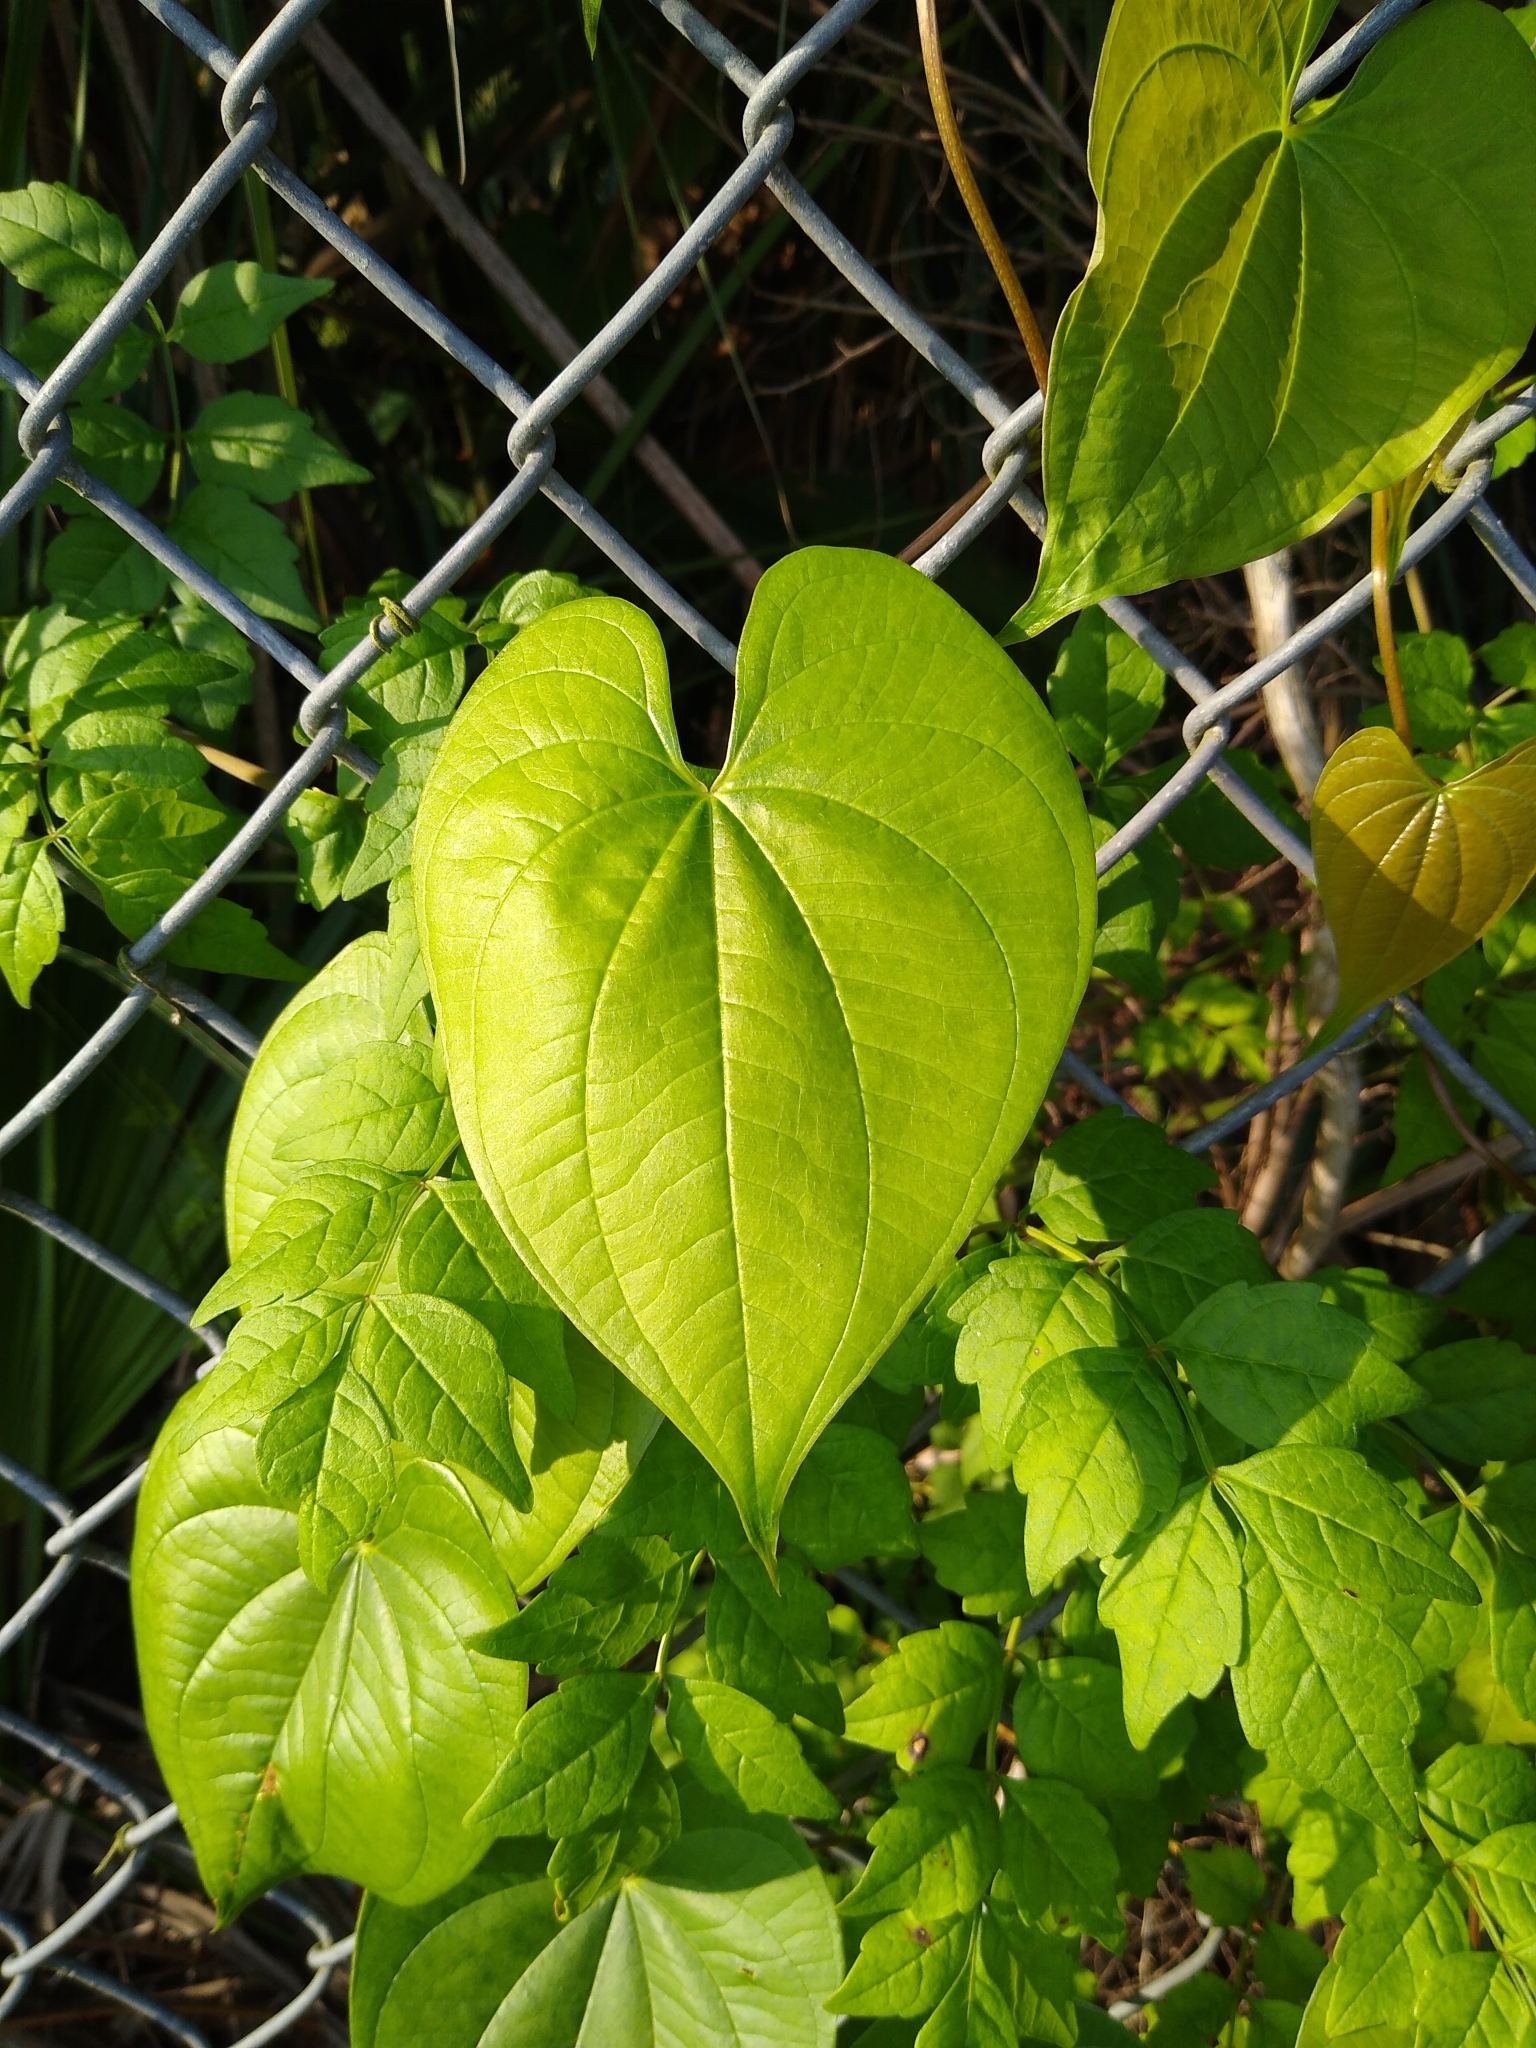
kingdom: Plantae
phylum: Tracheophyta
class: Liliopsida
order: Dioscoreales
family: Dioscoreaceae
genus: Dioscorea
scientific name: Dioscorea bulbifera
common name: Air yam
